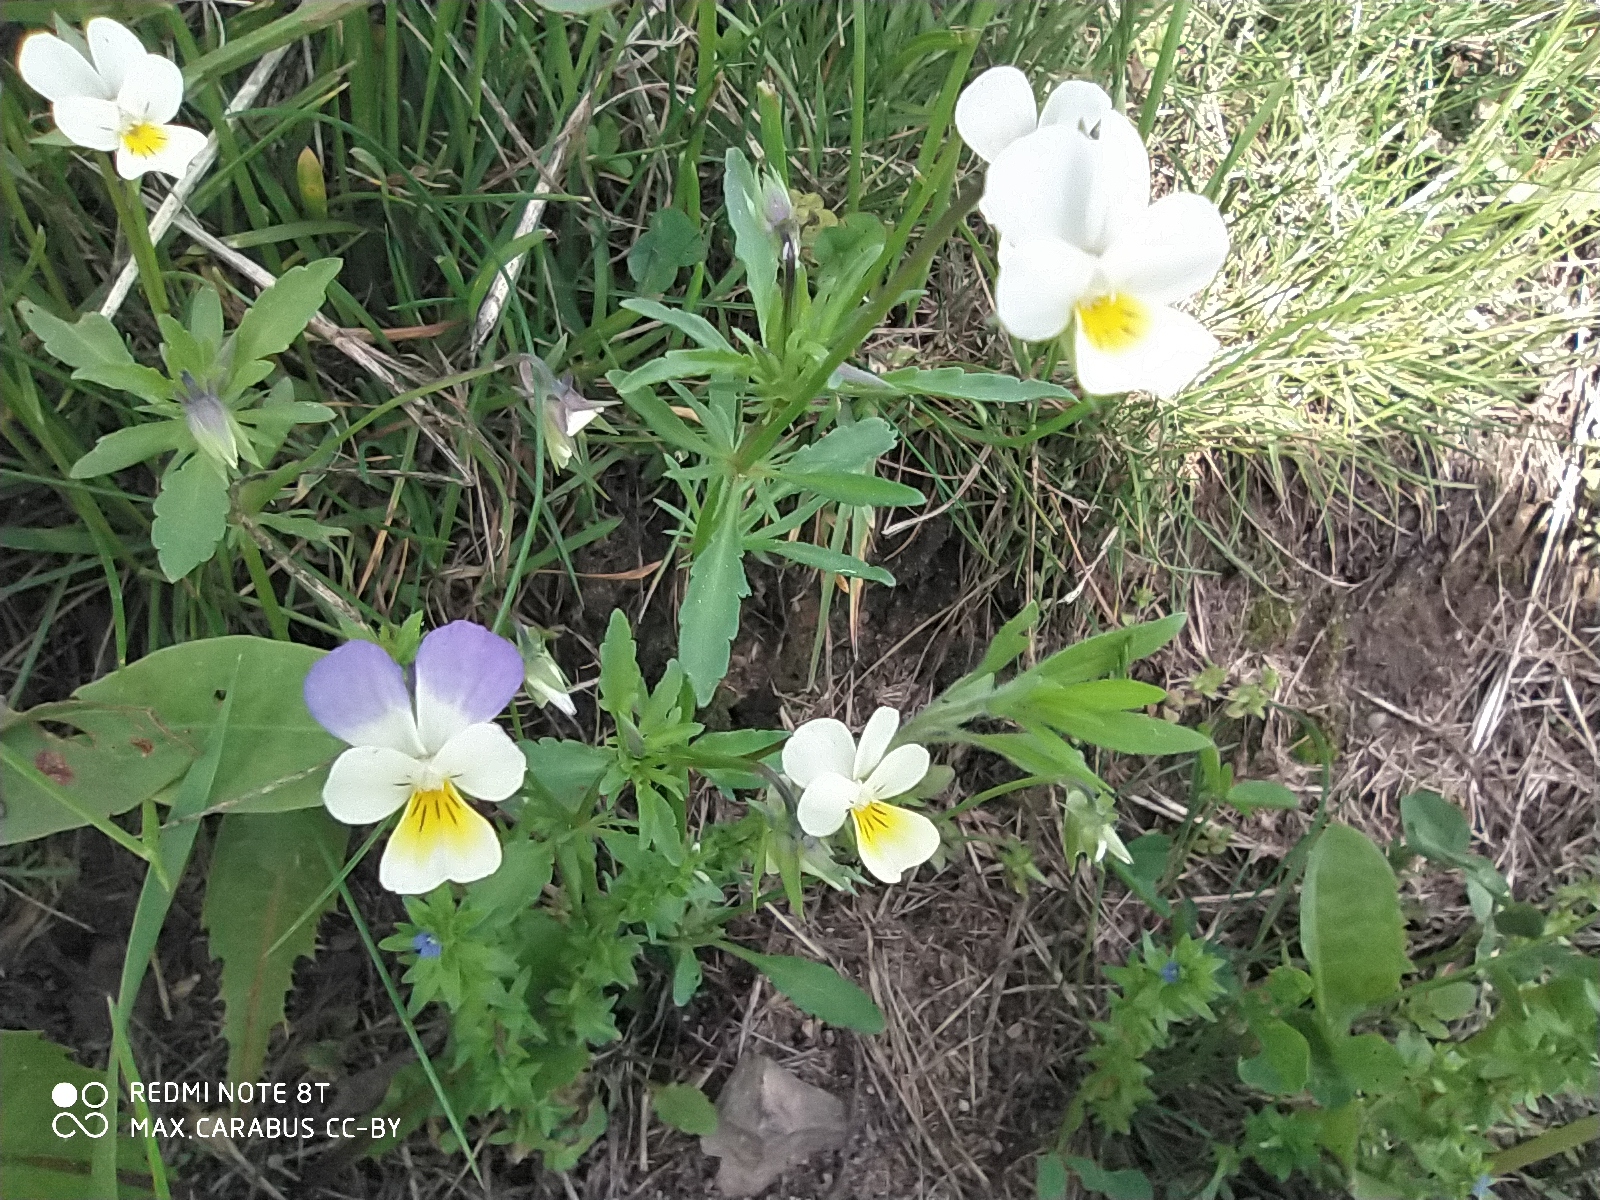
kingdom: Plantae
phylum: Tracheophyta
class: Magnoliopsida
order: Malpighiales
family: Violaceae
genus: Viola
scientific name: Viola tricolor
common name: Pansy
